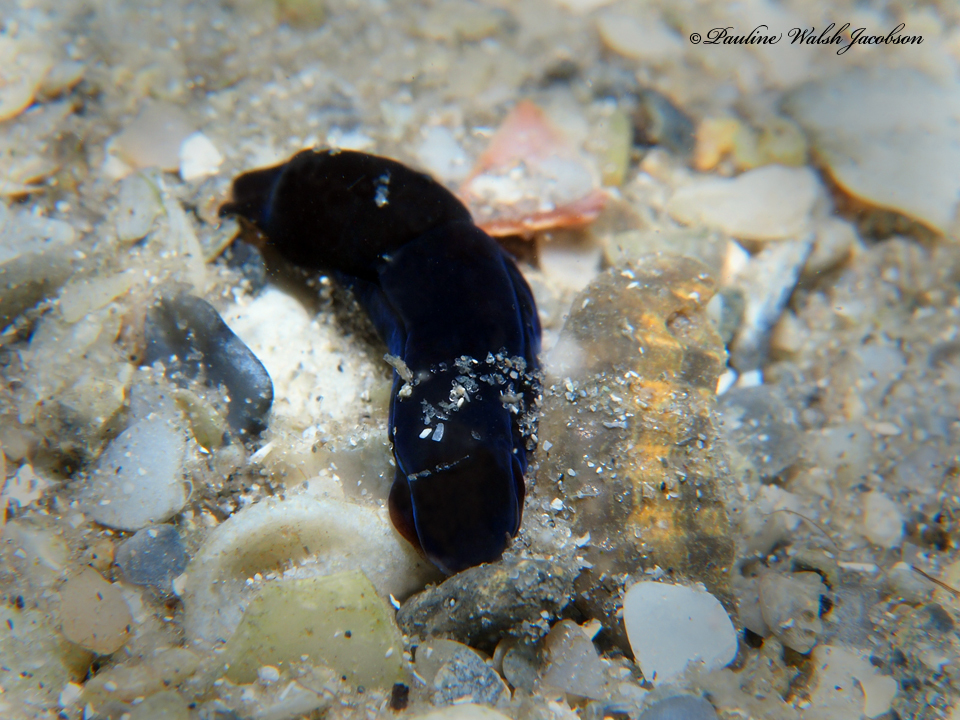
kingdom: Animalia
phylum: Mollusca
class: Gastropoda
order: Cephalaspidea
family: Aglajidae
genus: Nakamigawaia
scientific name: Nakamigawaia felis
